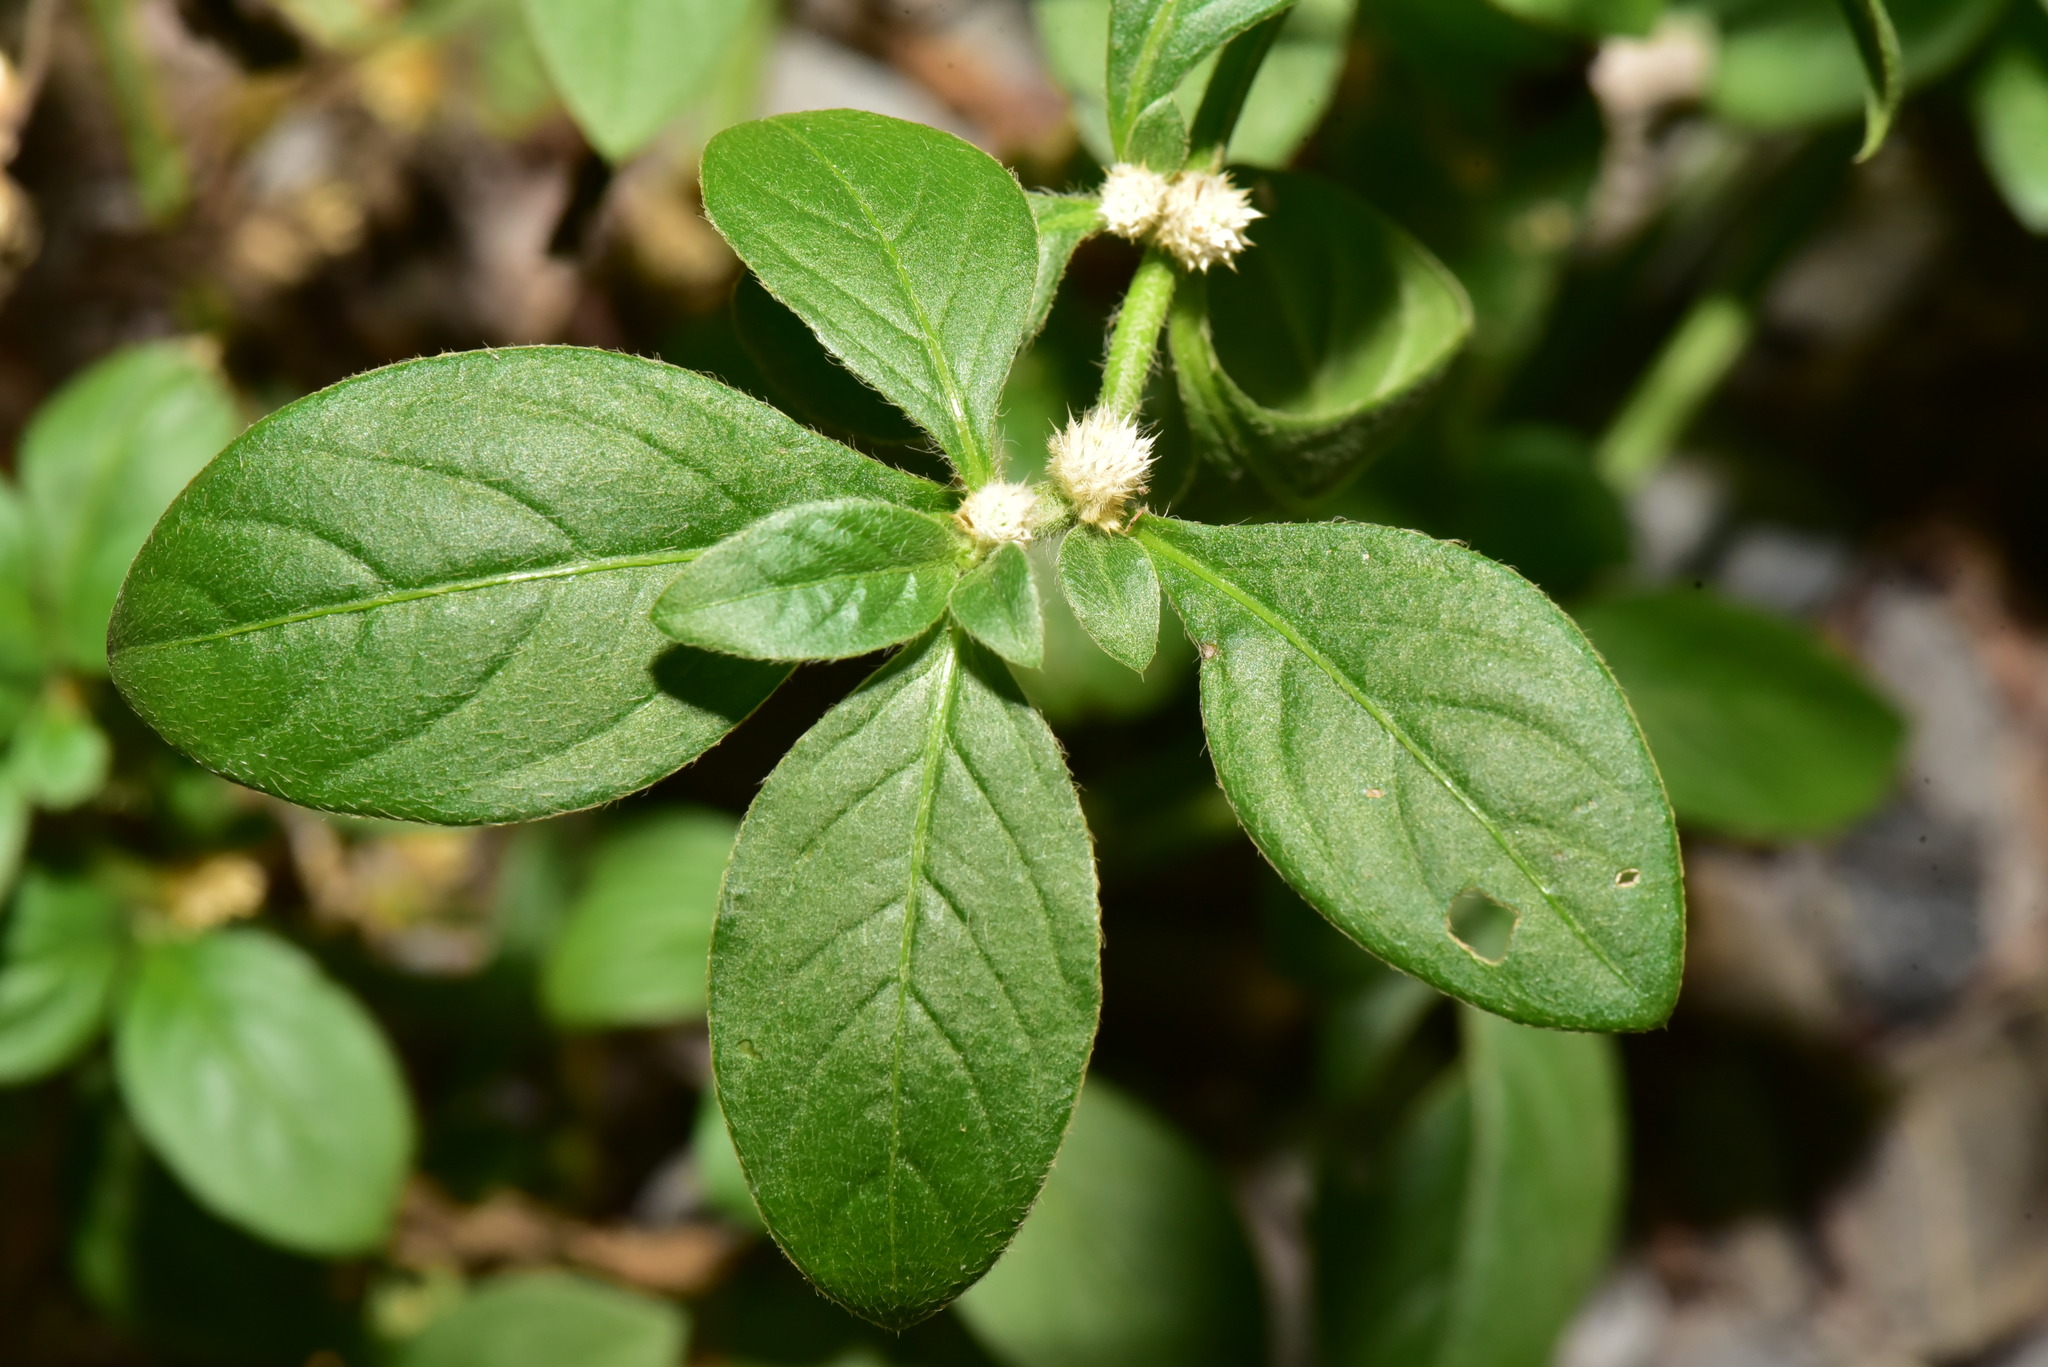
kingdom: Plantae
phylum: Tracheophyta
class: Magnoliopsida
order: Caryophyllales
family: Amaranthaceae
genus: Alternanthera
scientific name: Alternanthera ficoidea
